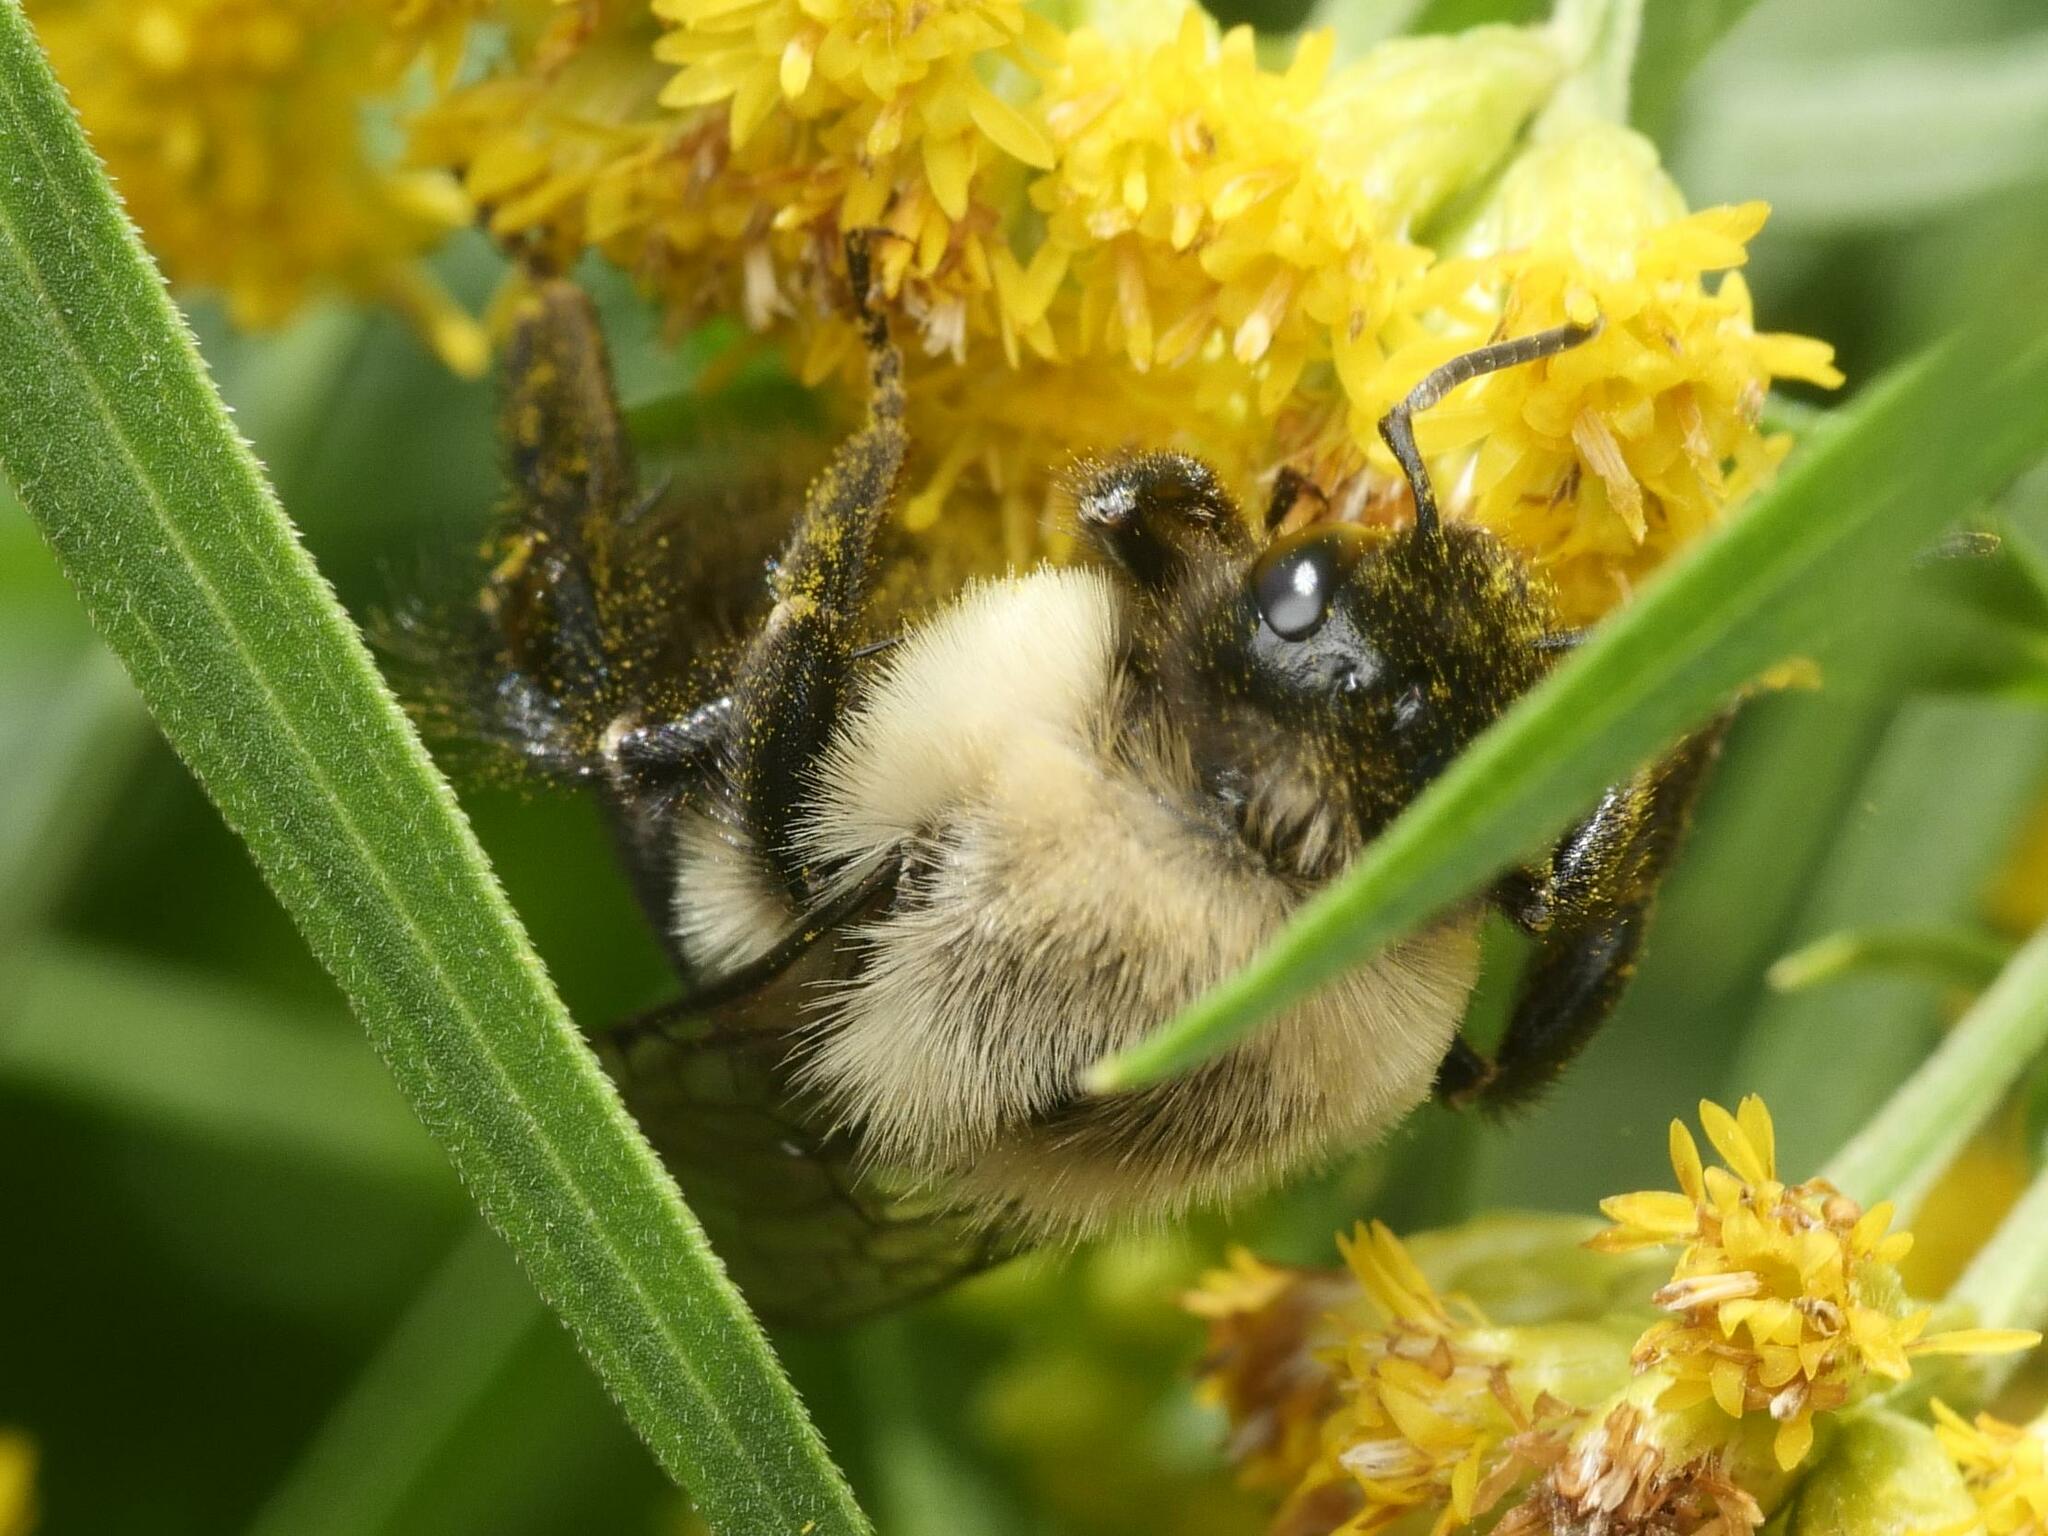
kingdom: Animalia
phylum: Arthropoda
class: Insecta
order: Hymenoptera
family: Apidae
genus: Bombus
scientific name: Bombus impatiens
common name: Common eastern bumble bee
